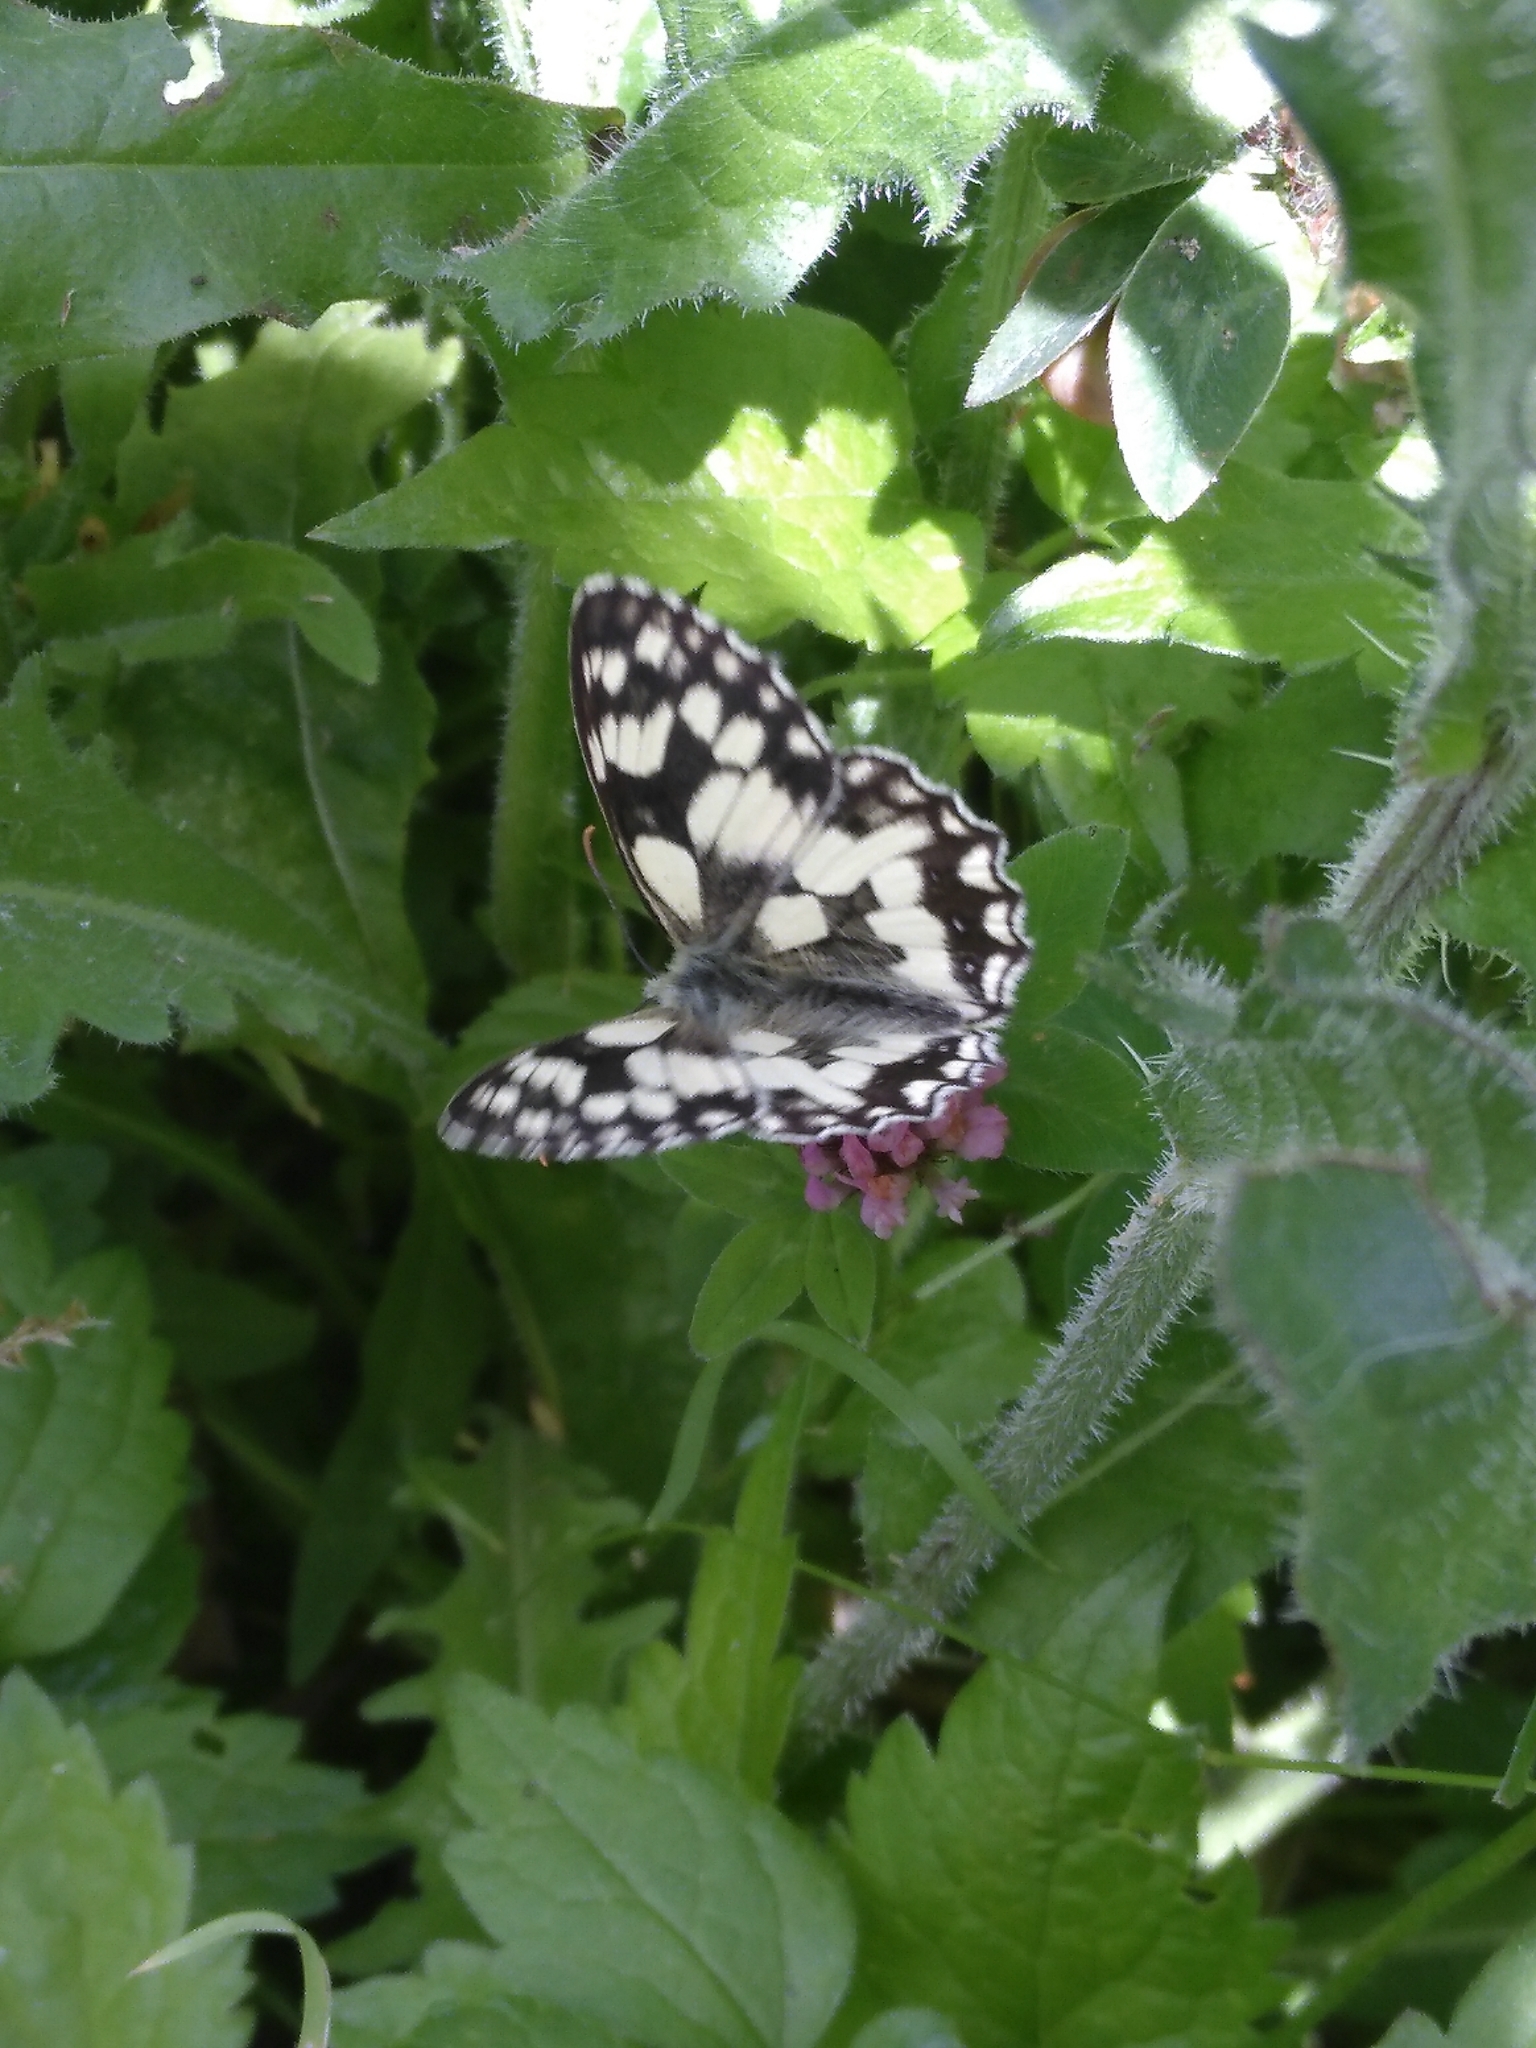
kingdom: Animalia
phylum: Arthropoda
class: Insecta
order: Lepidoptera
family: Nymphalidae
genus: Melanargia
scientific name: Melanargia galathea
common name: Marbled white
